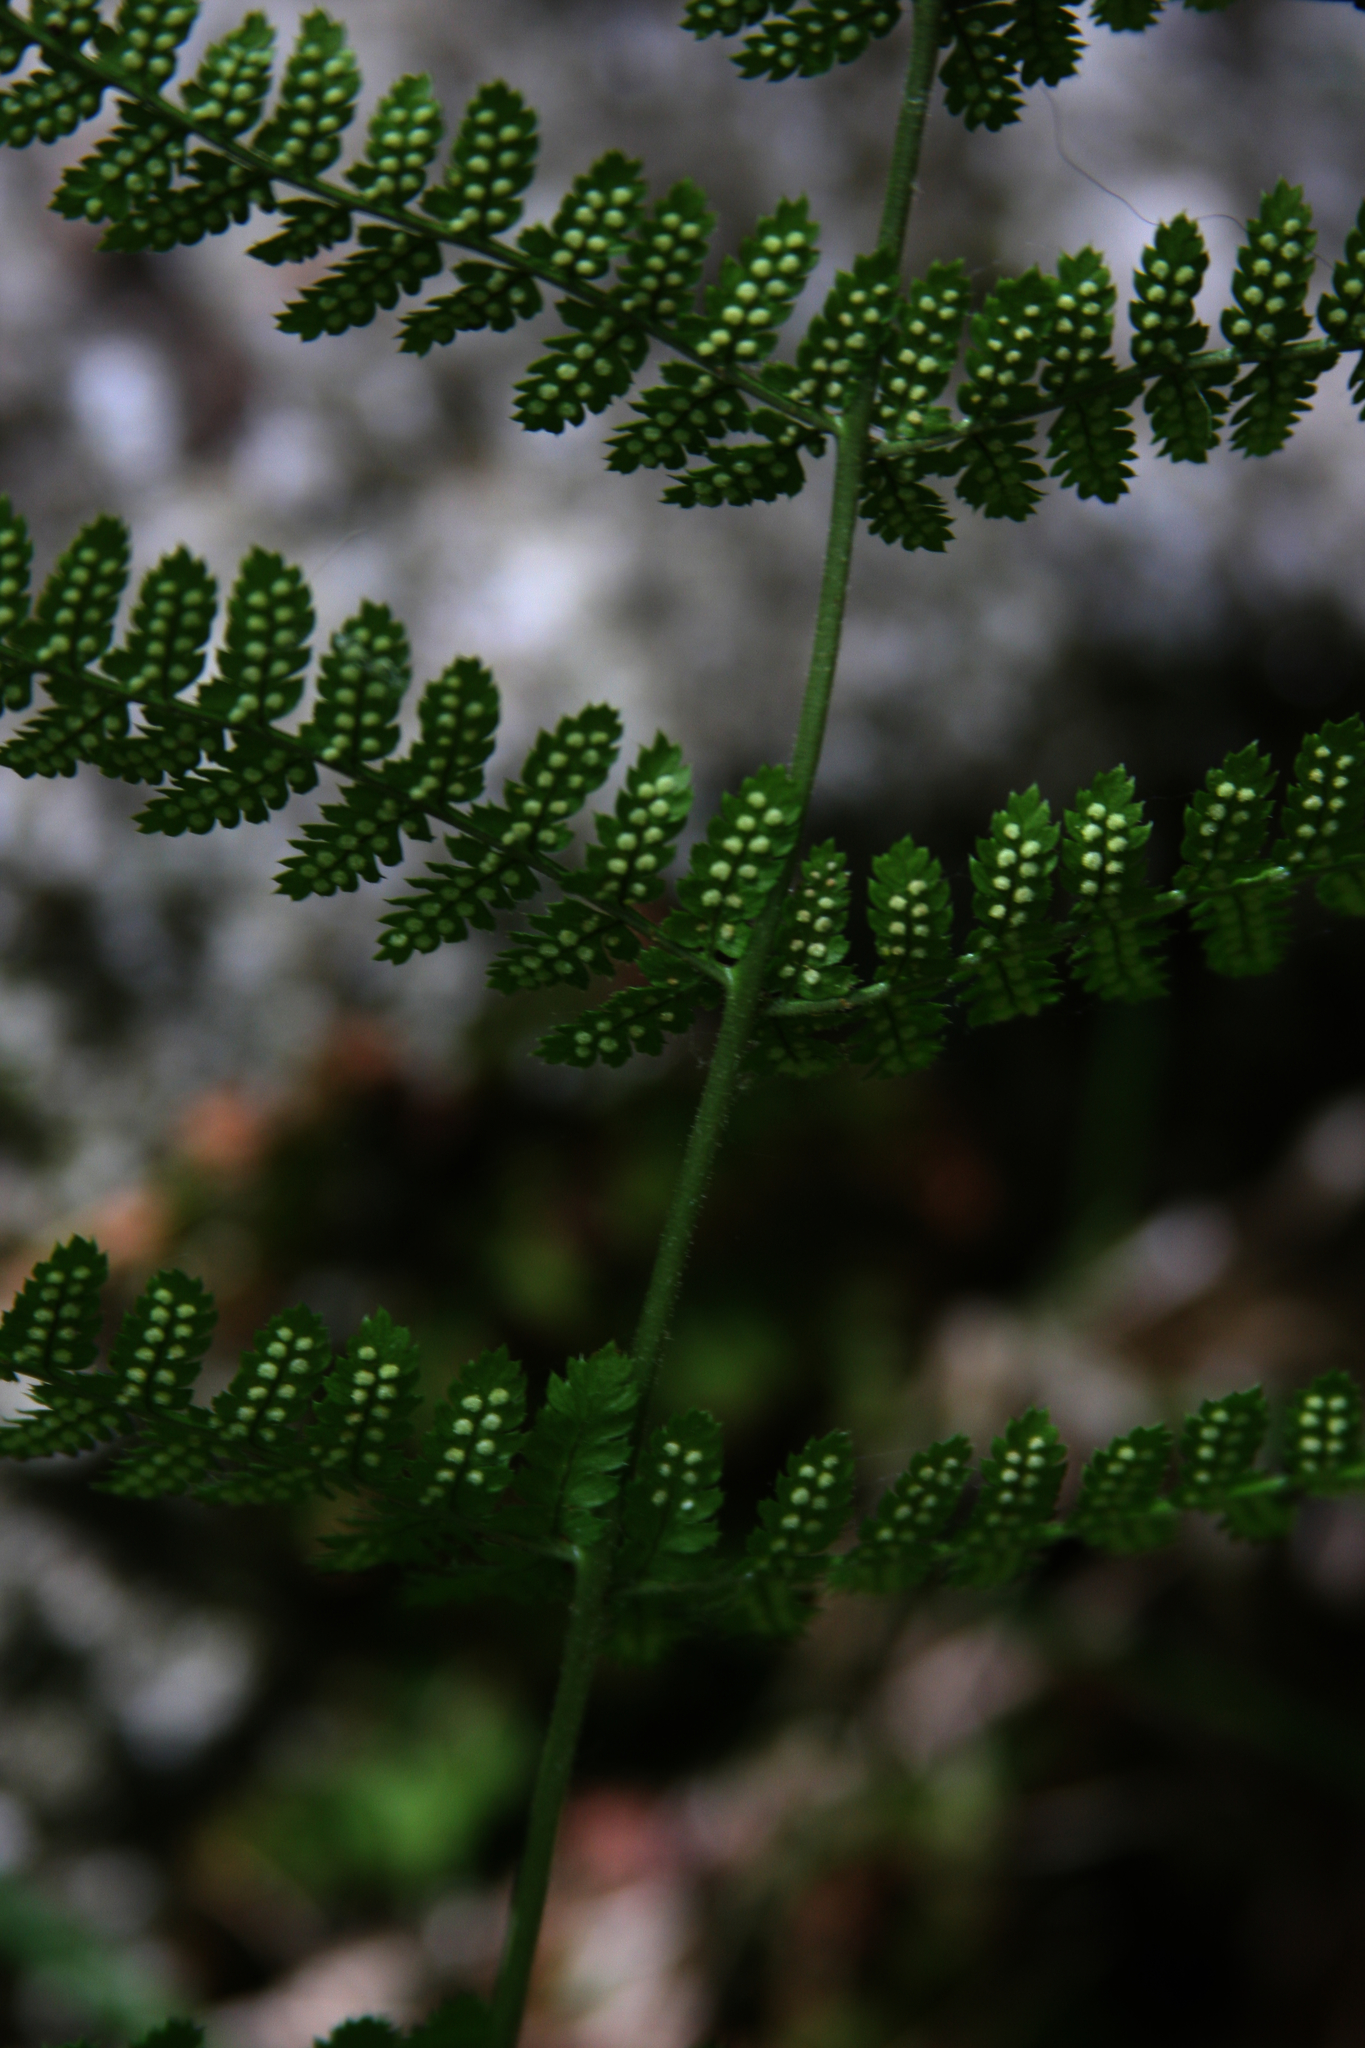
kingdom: Plantae
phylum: Tracheophyta
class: Polypodiopsida
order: Polypodiales
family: Dryopteridaceae
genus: Dryopteris
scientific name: Dryopteris intermedia
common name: Evergreen wood fern
